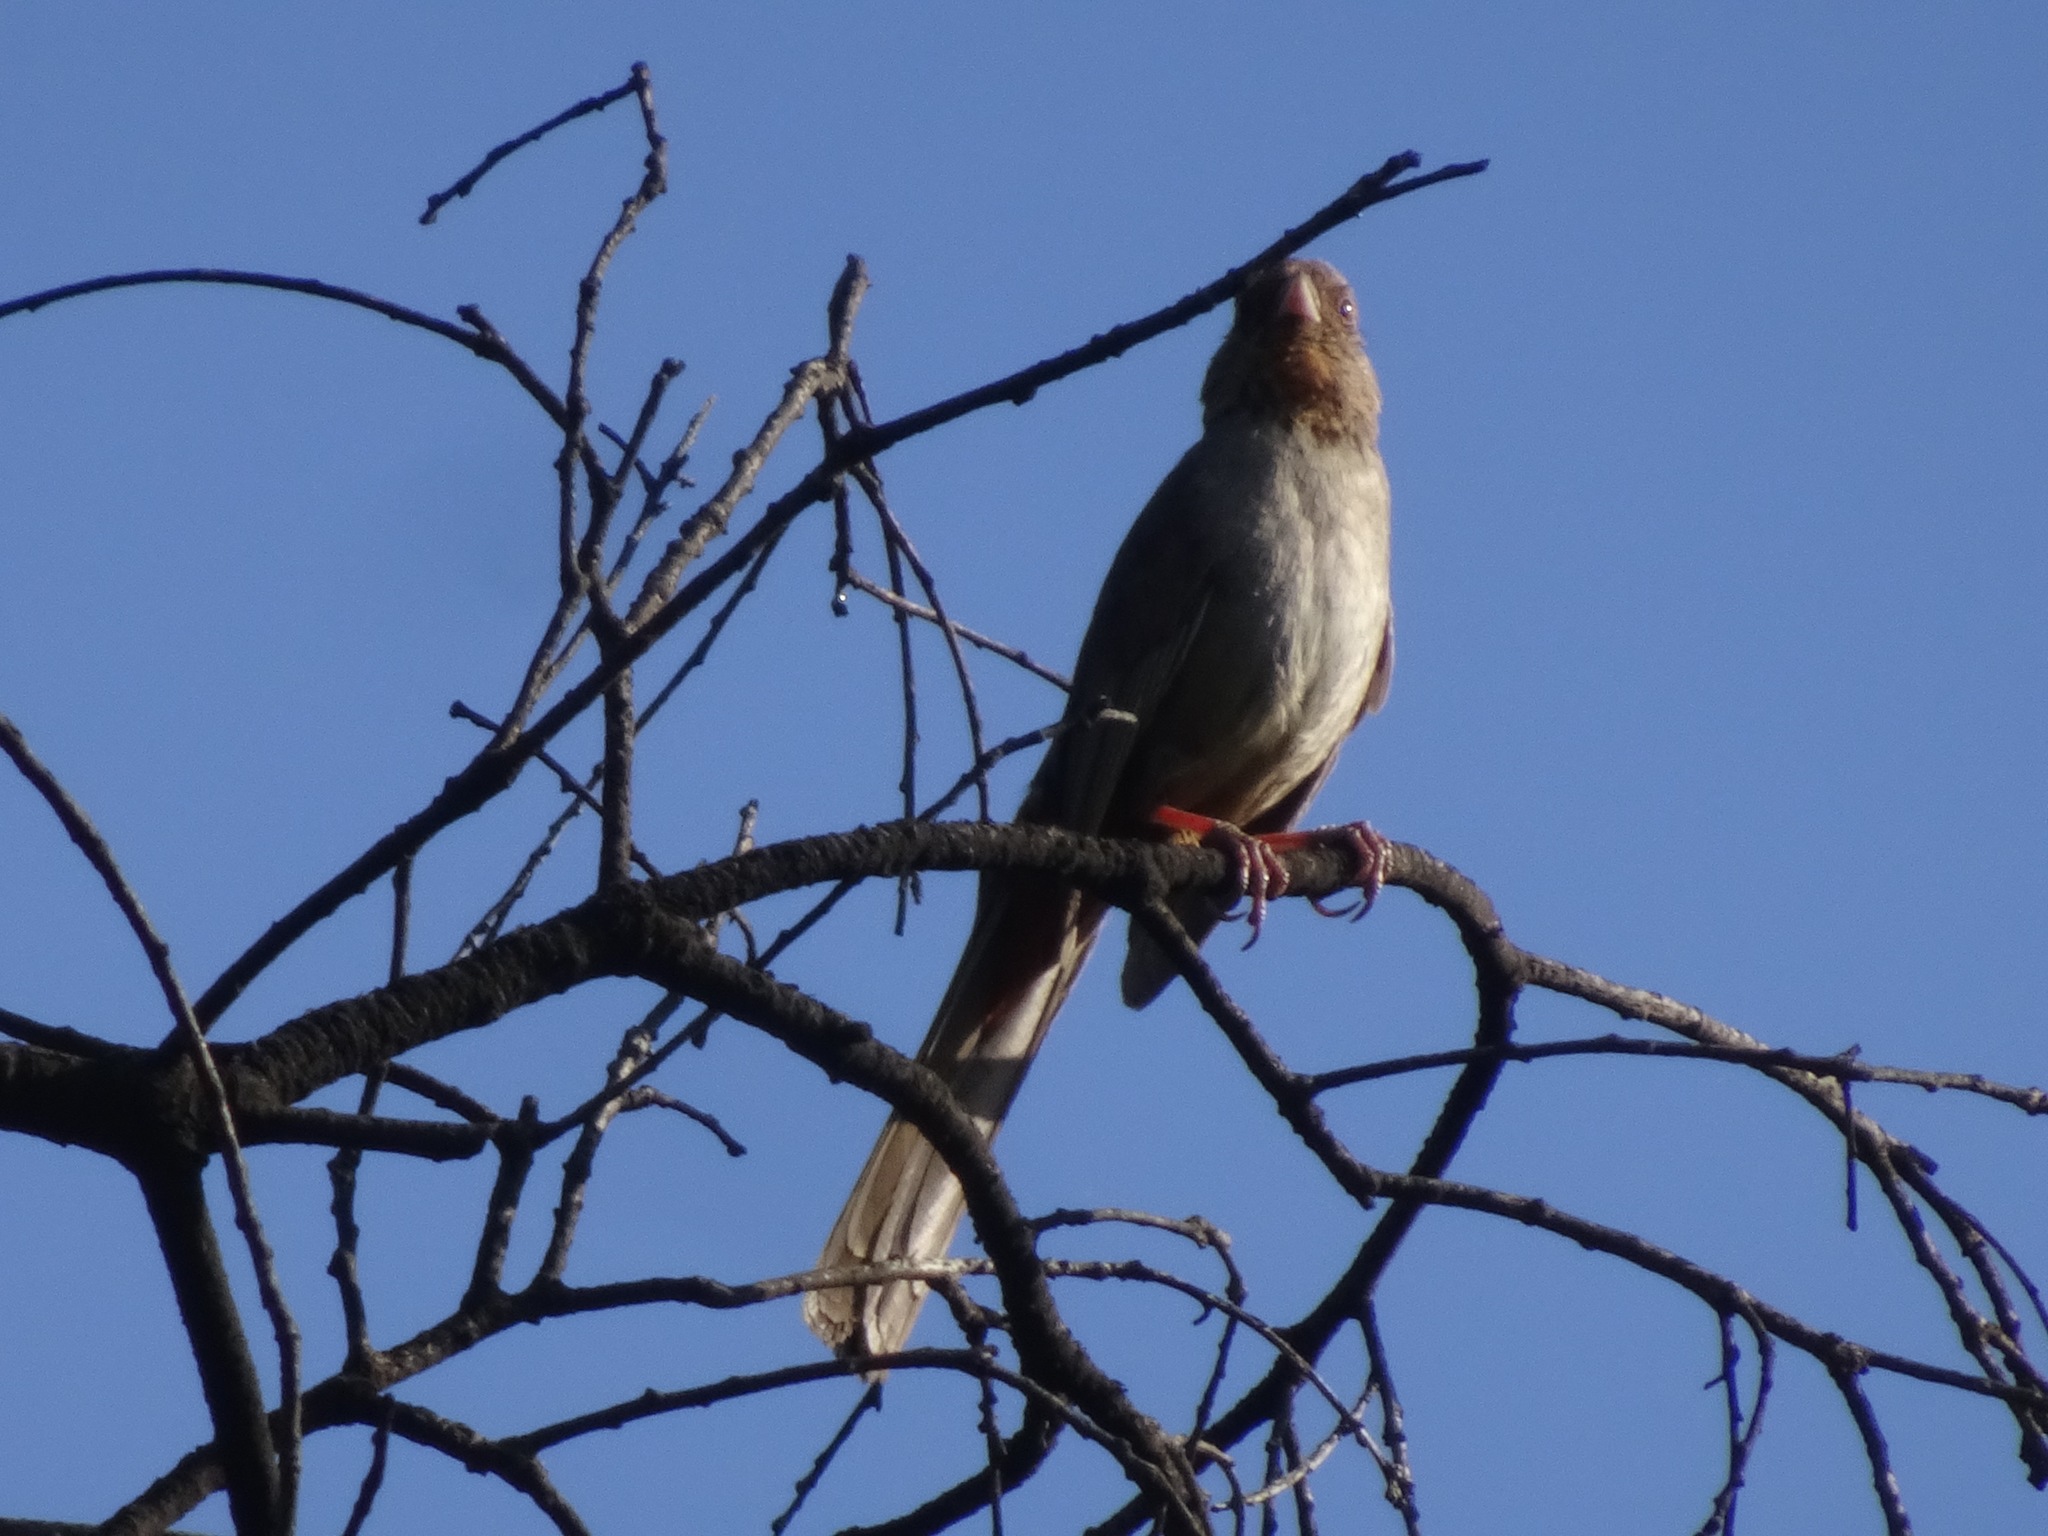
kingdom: Animalia
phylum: Chordata
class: Aves
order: Passeriformes
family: Passerellidae
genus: Melozone
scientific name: Melozone crissalis
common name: California towhee
